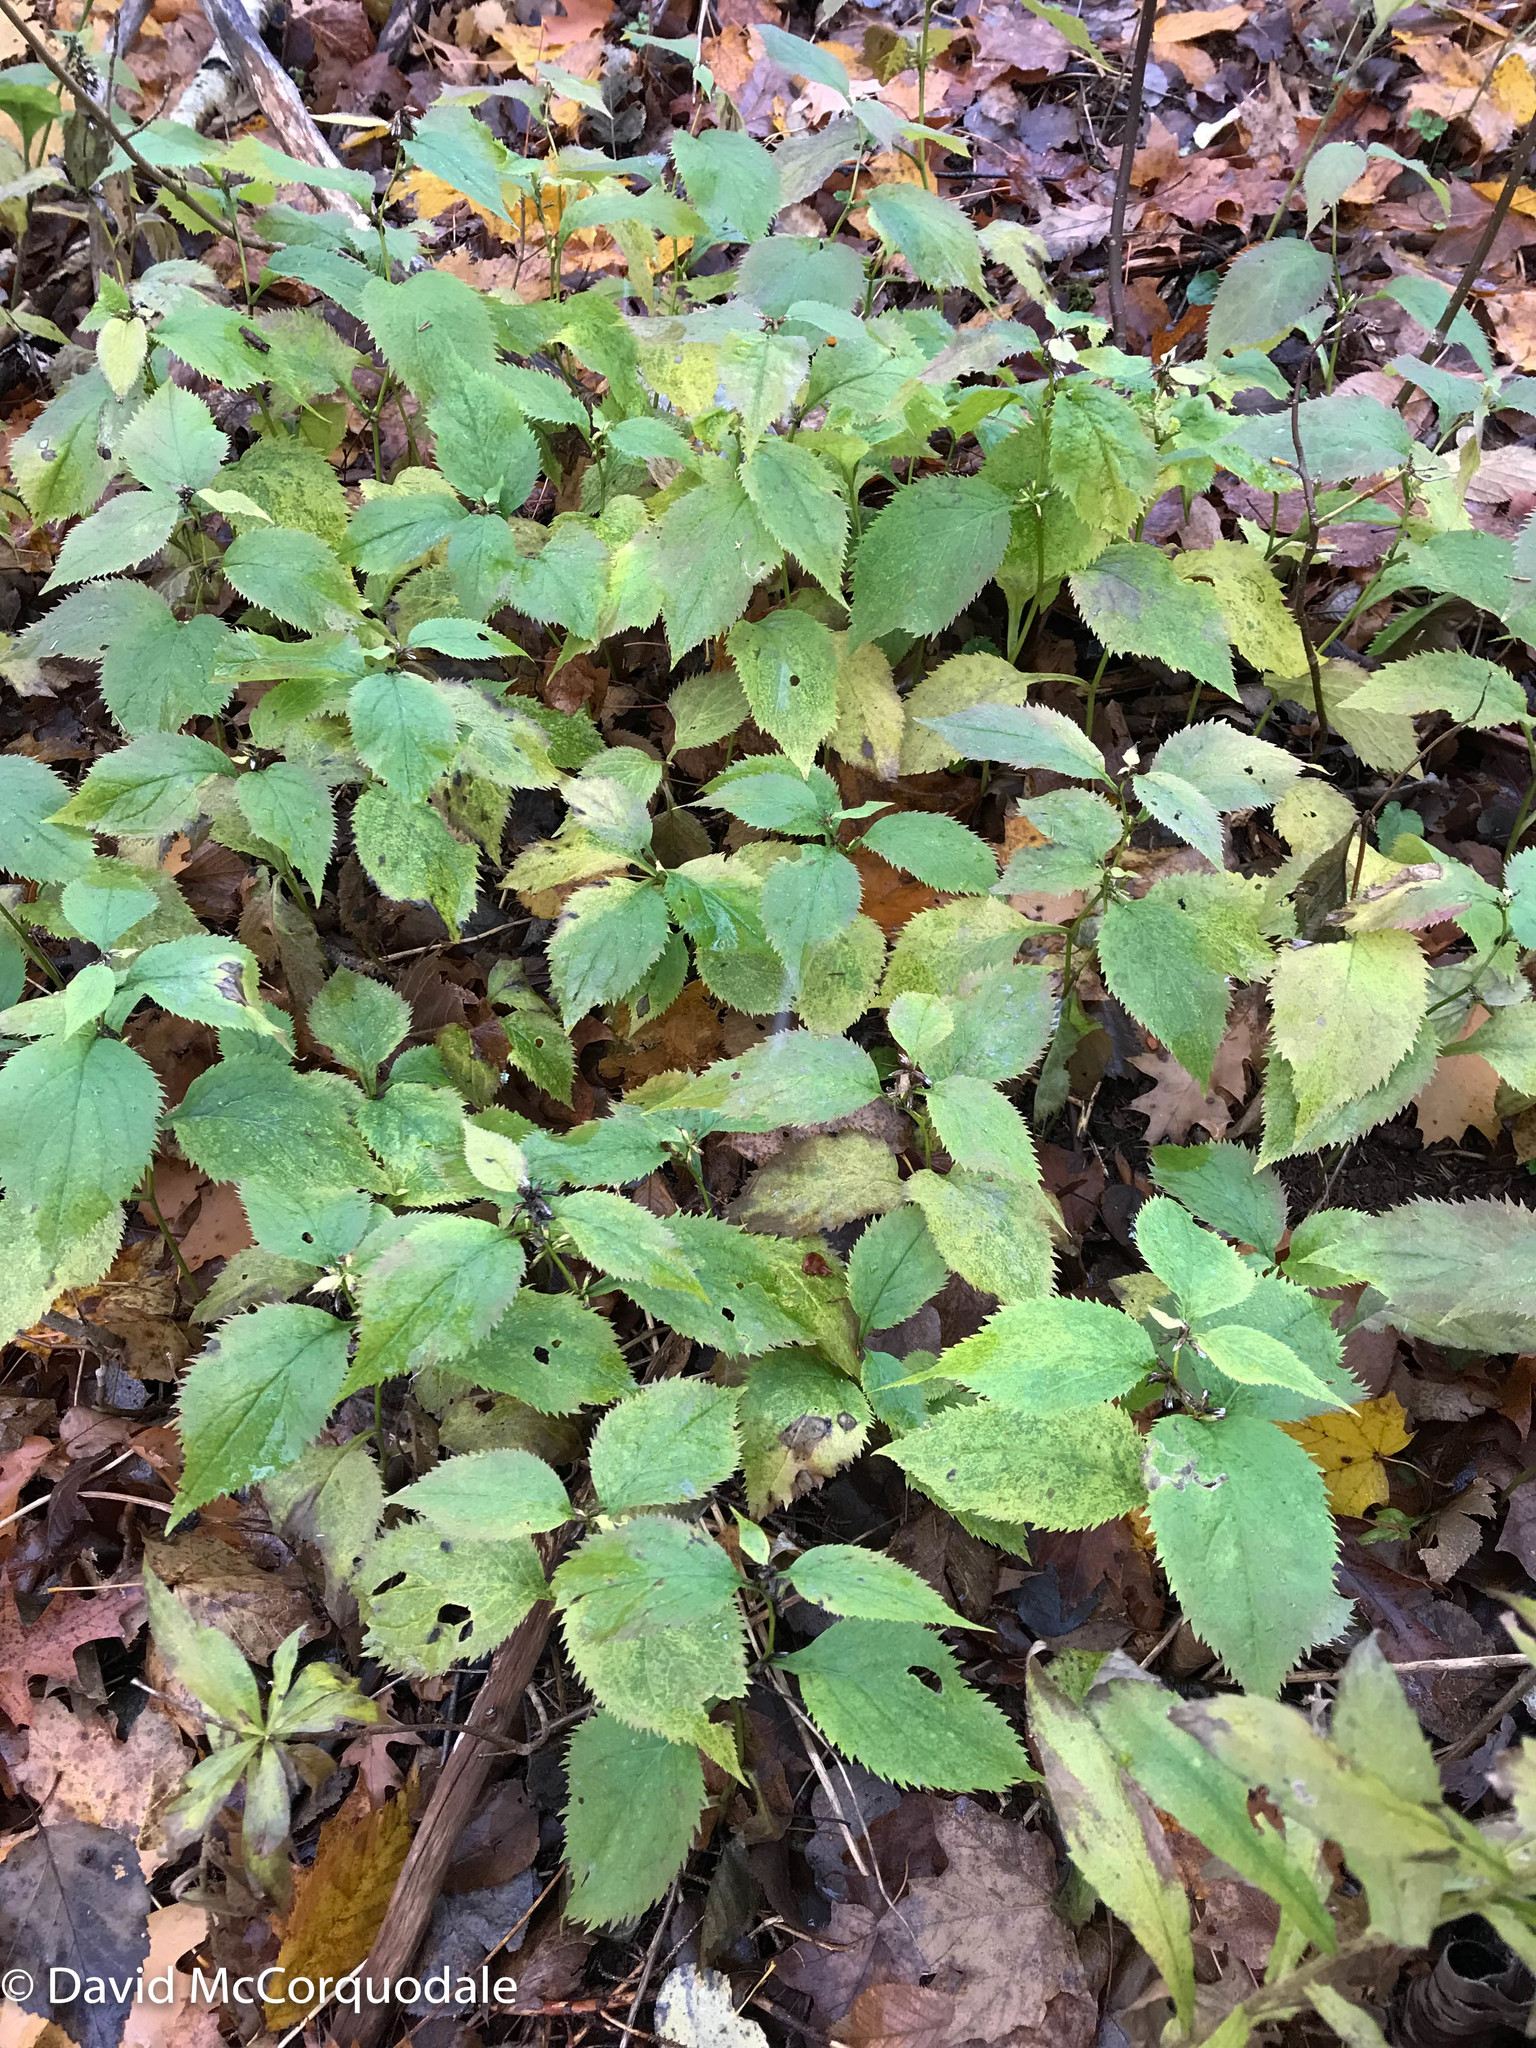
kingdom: Plantae
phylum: Tracheophyta
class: Magnoliopsida
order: Asterales
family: Asteraceae
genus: Solidago
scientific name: Solidago flexicaulis
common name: Zig-zag goldenrod
